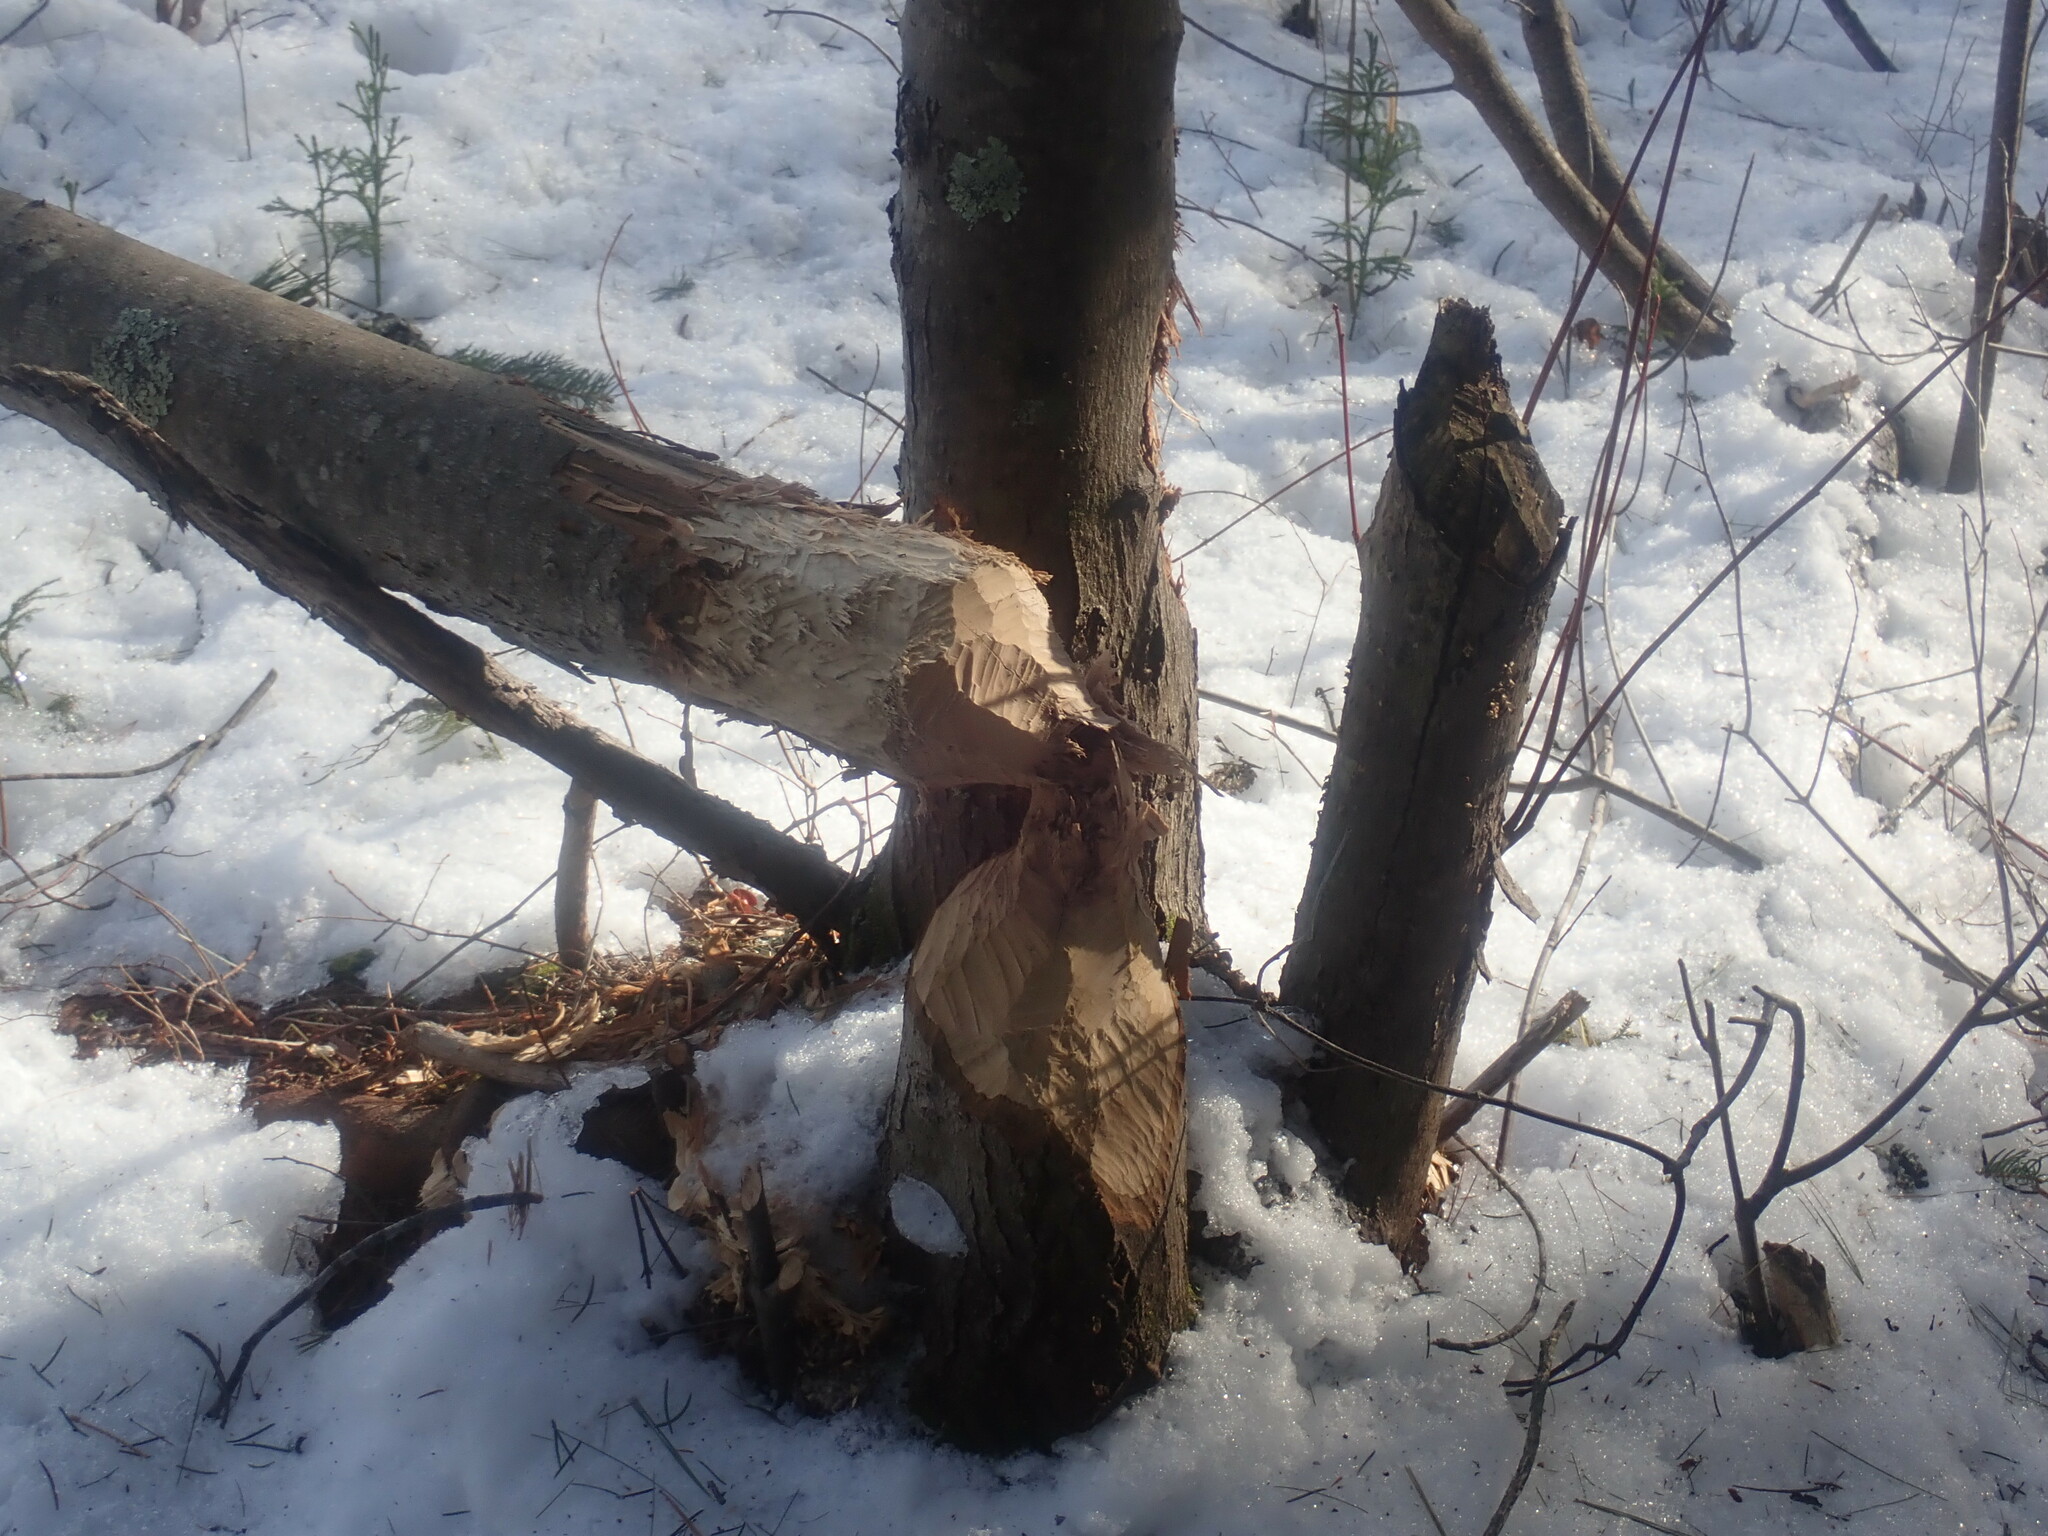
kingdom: Animalia
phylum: Chordata
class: Mammalia
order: Rodentia
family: Castoridae
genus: Castor
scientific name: Castor canadensis
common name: American beaver
